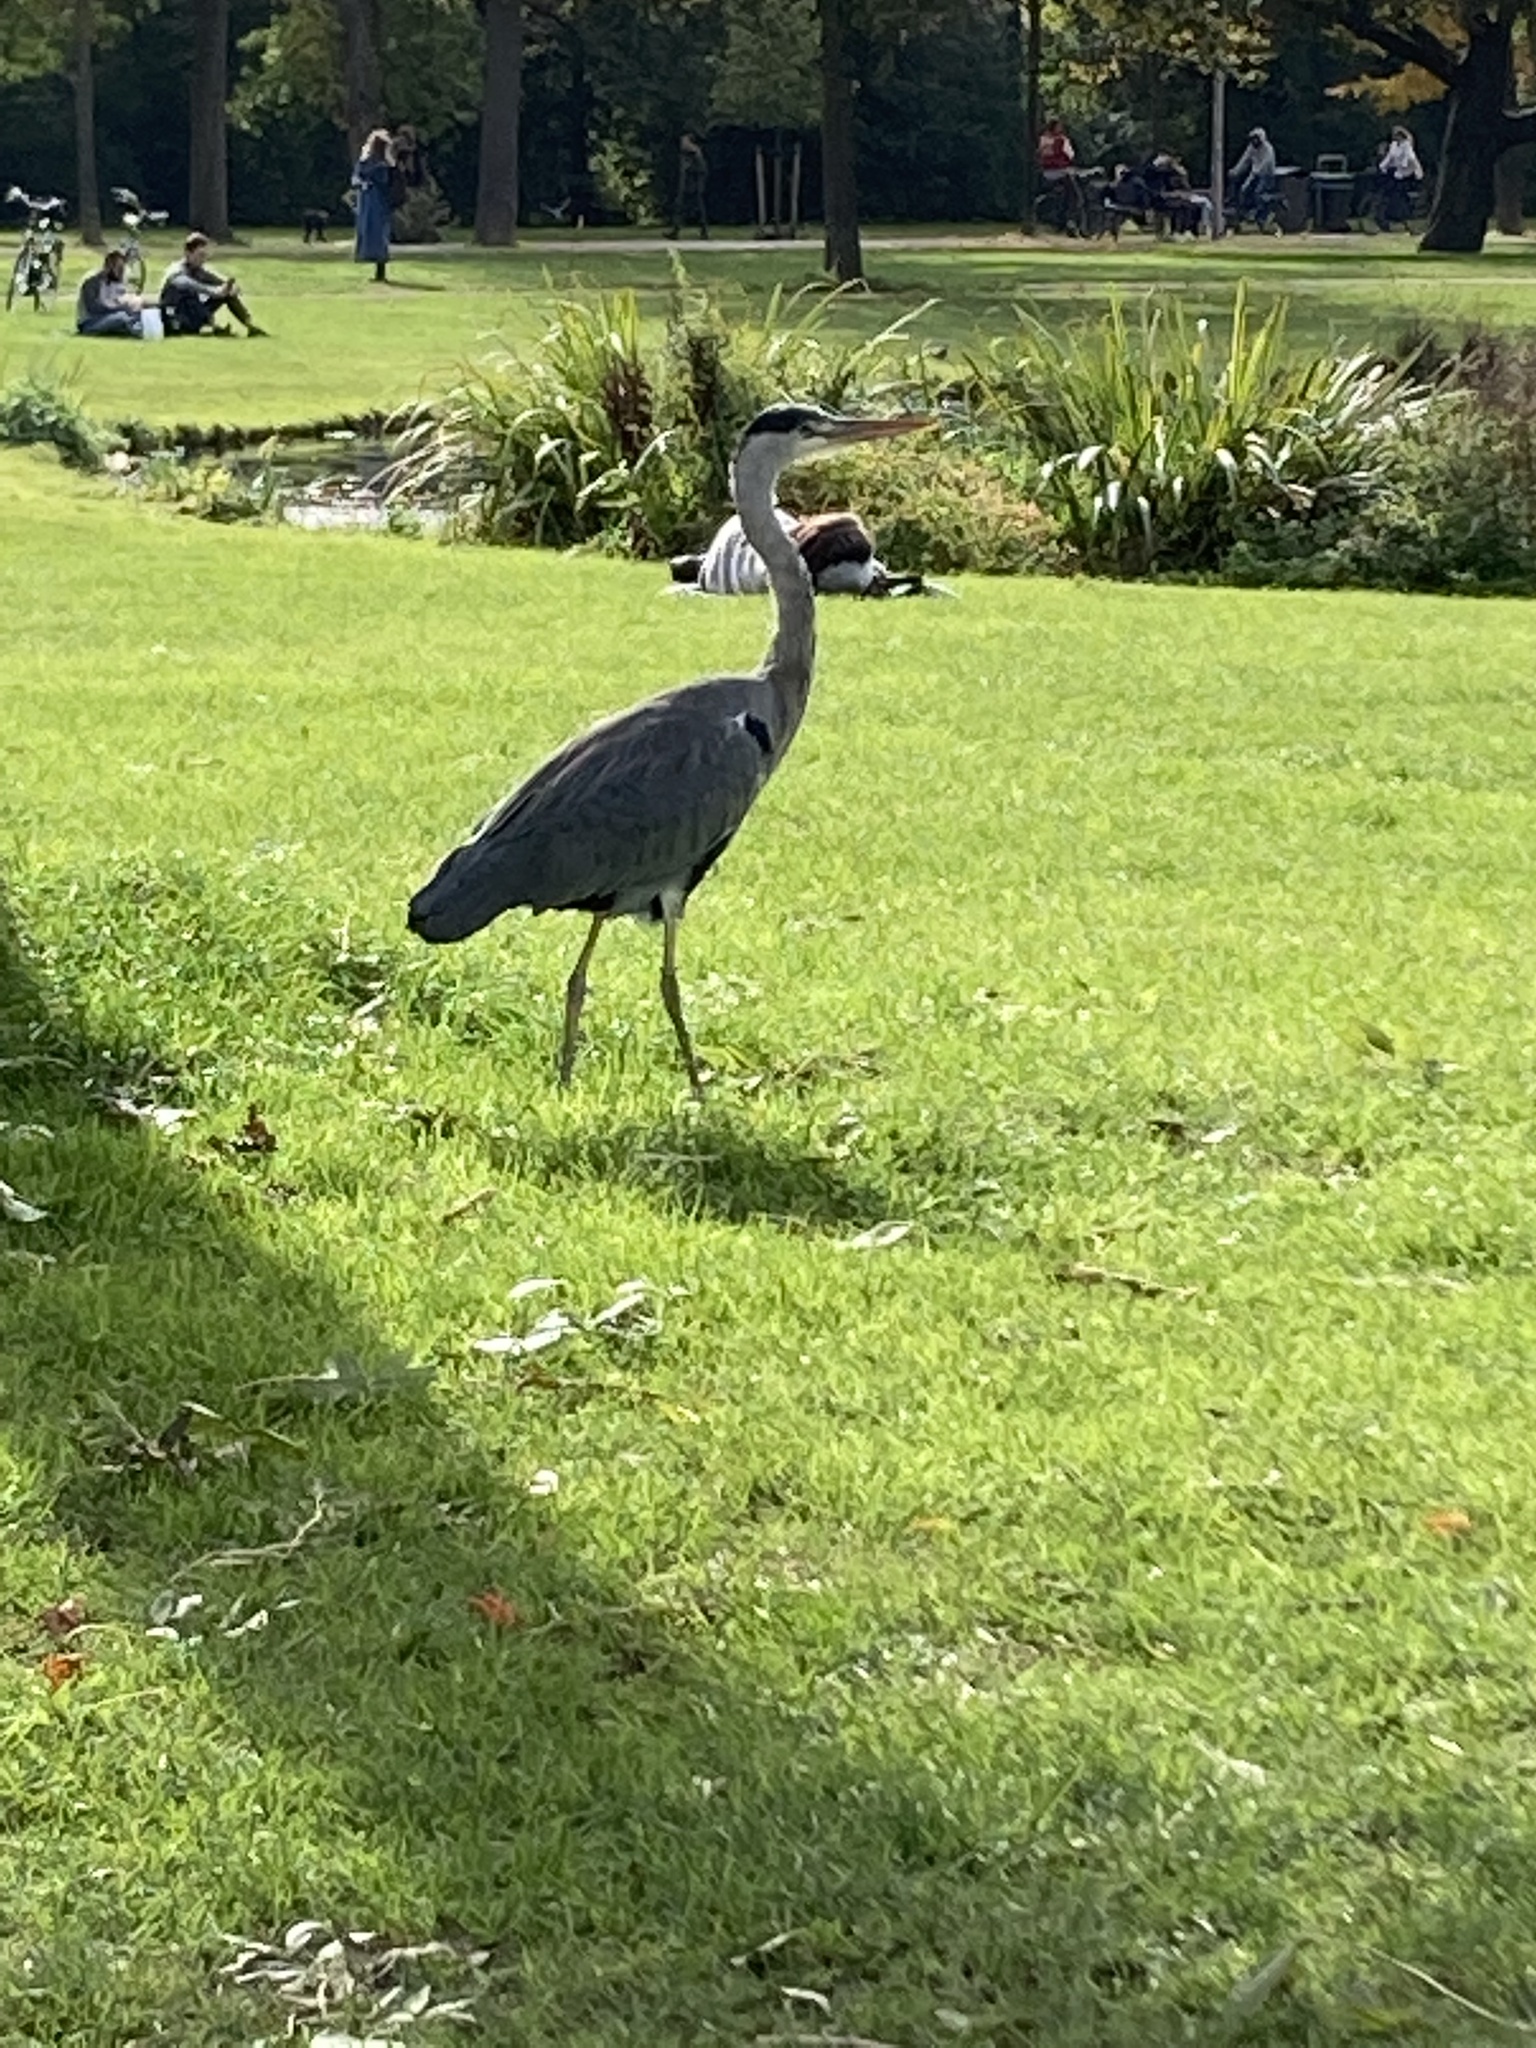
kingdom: Animalia
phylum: Chordata
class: Aves
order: Pelecaniformes
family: Ardeidae
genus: Ardea
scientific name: Ardea cinerea
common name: Grey heron
